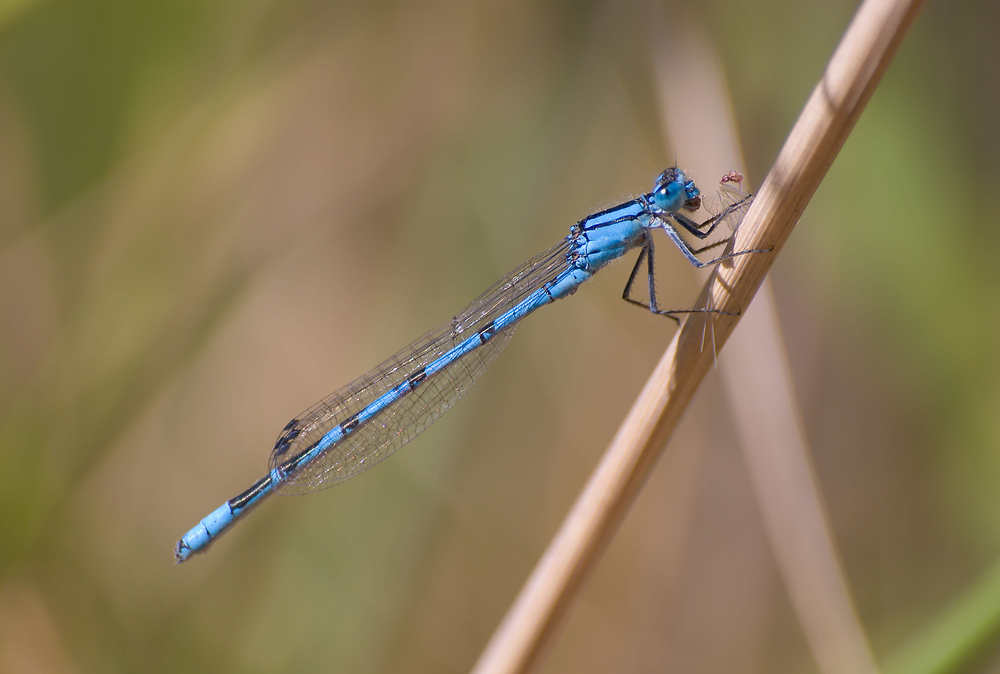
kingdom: Animalia
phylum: Arthropoda
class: Insecta
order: Odonata
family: Coenagrionidae
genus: Enallagma
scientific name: Enallagma cyathigerum
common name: Common blue damselfly
